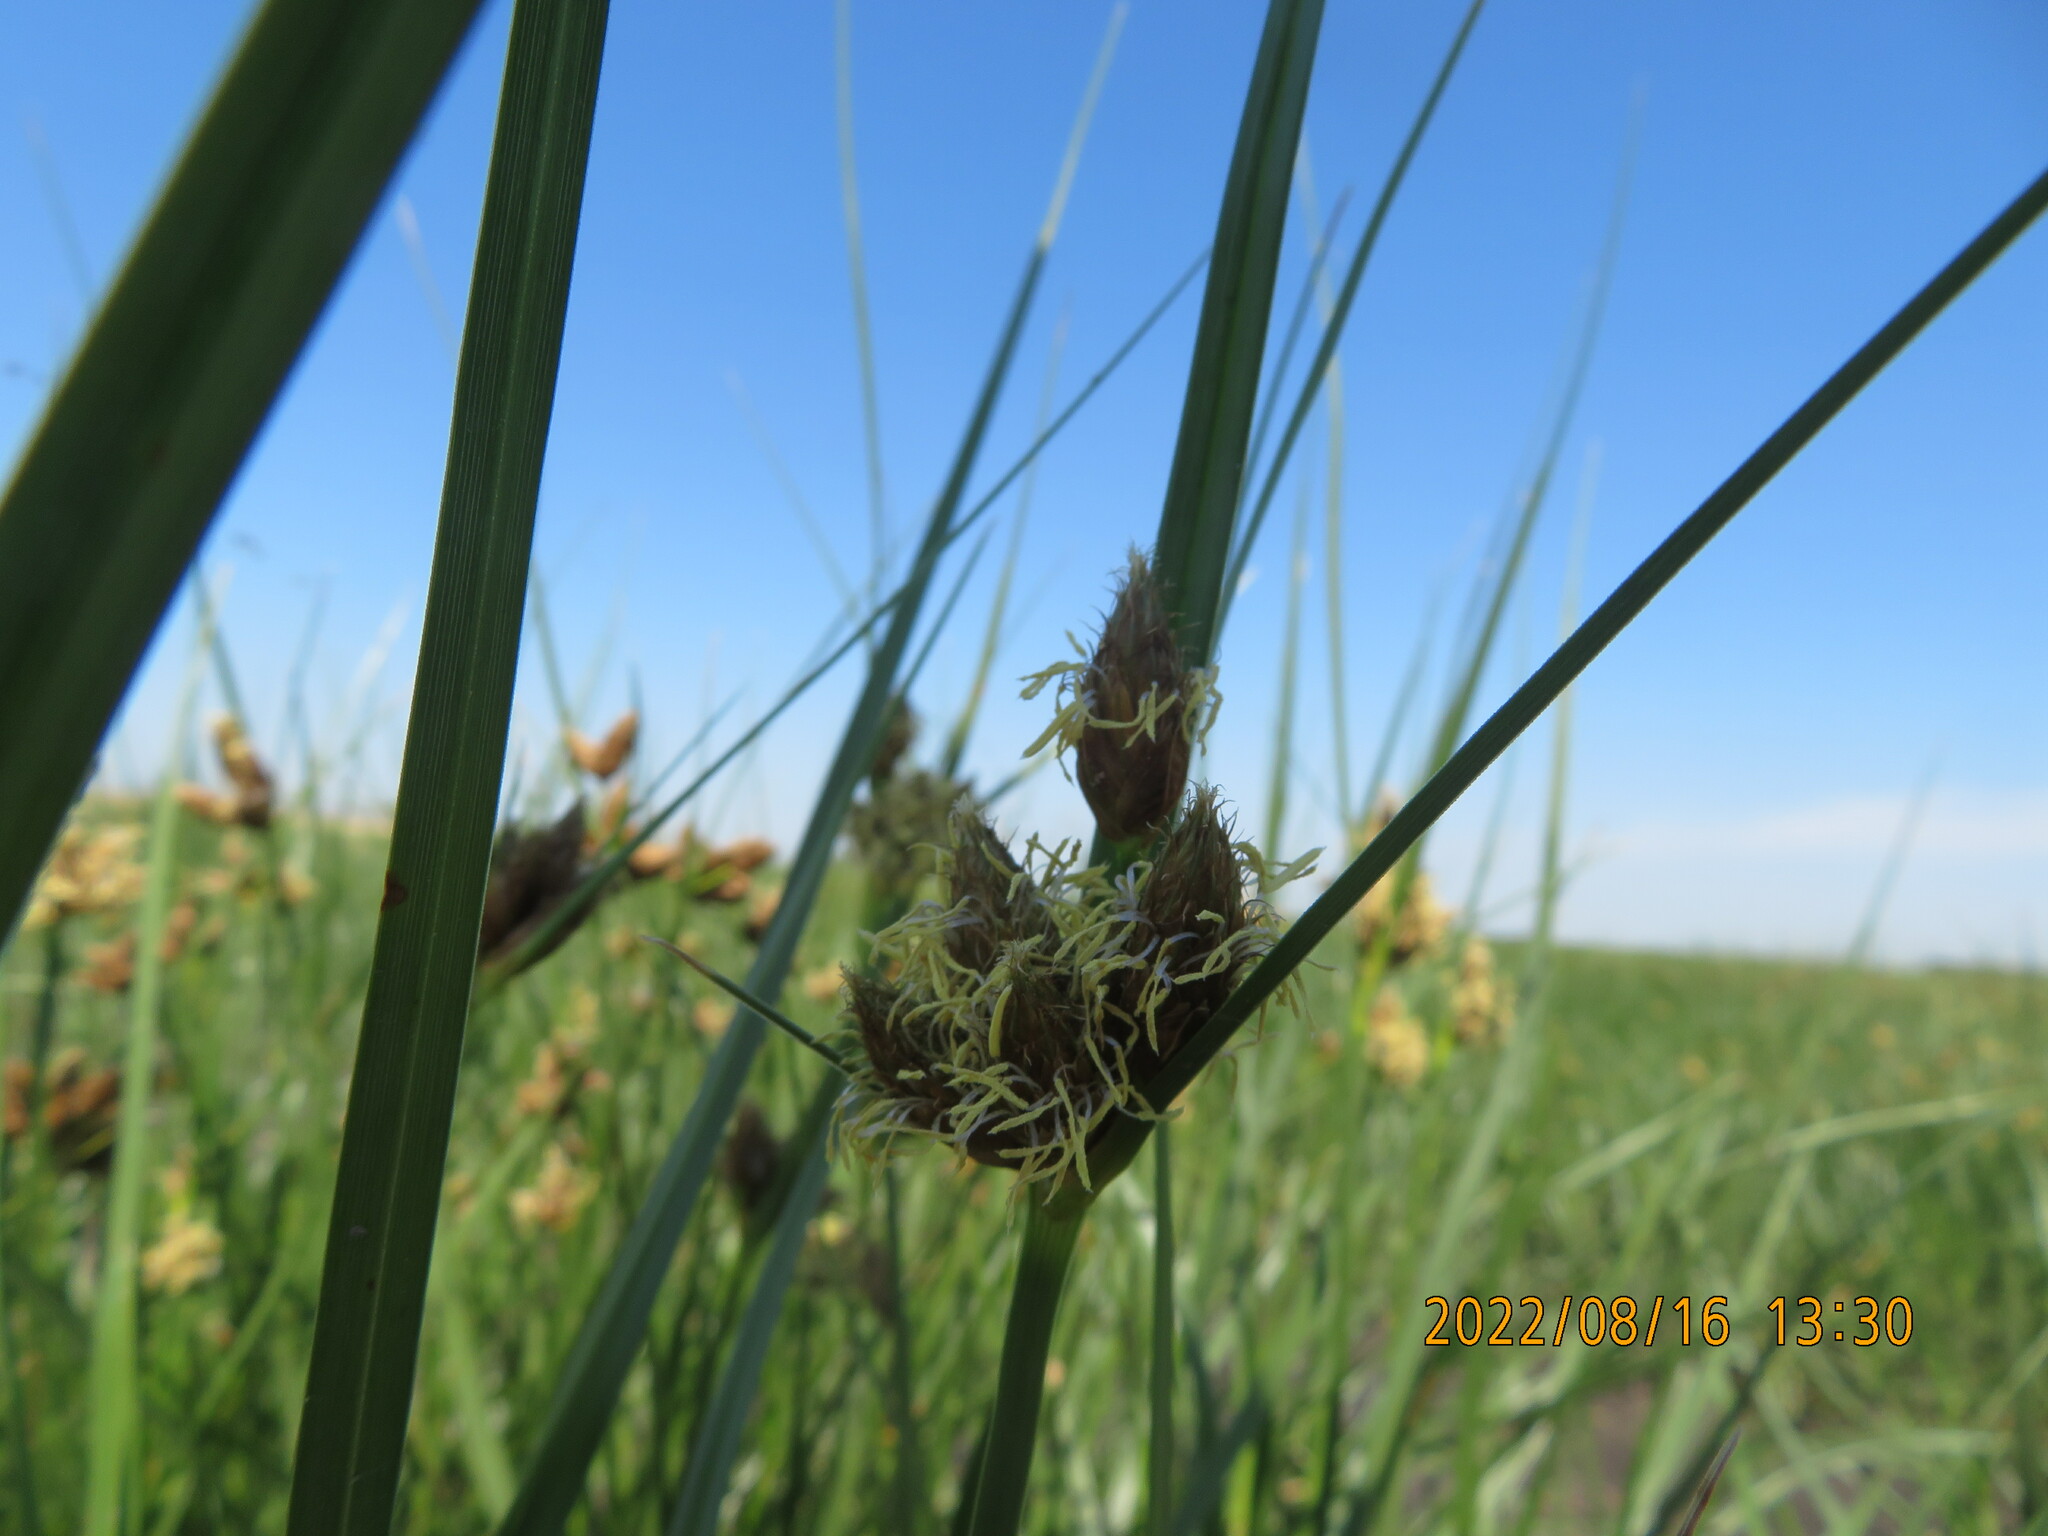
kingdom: Plantae
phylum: Tracheophyta
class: Liliopsida
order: Poales
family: Cyperaceae
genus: Bolboschoenus
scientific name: Bolboschoenus maritimus
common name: Sea club-rush
